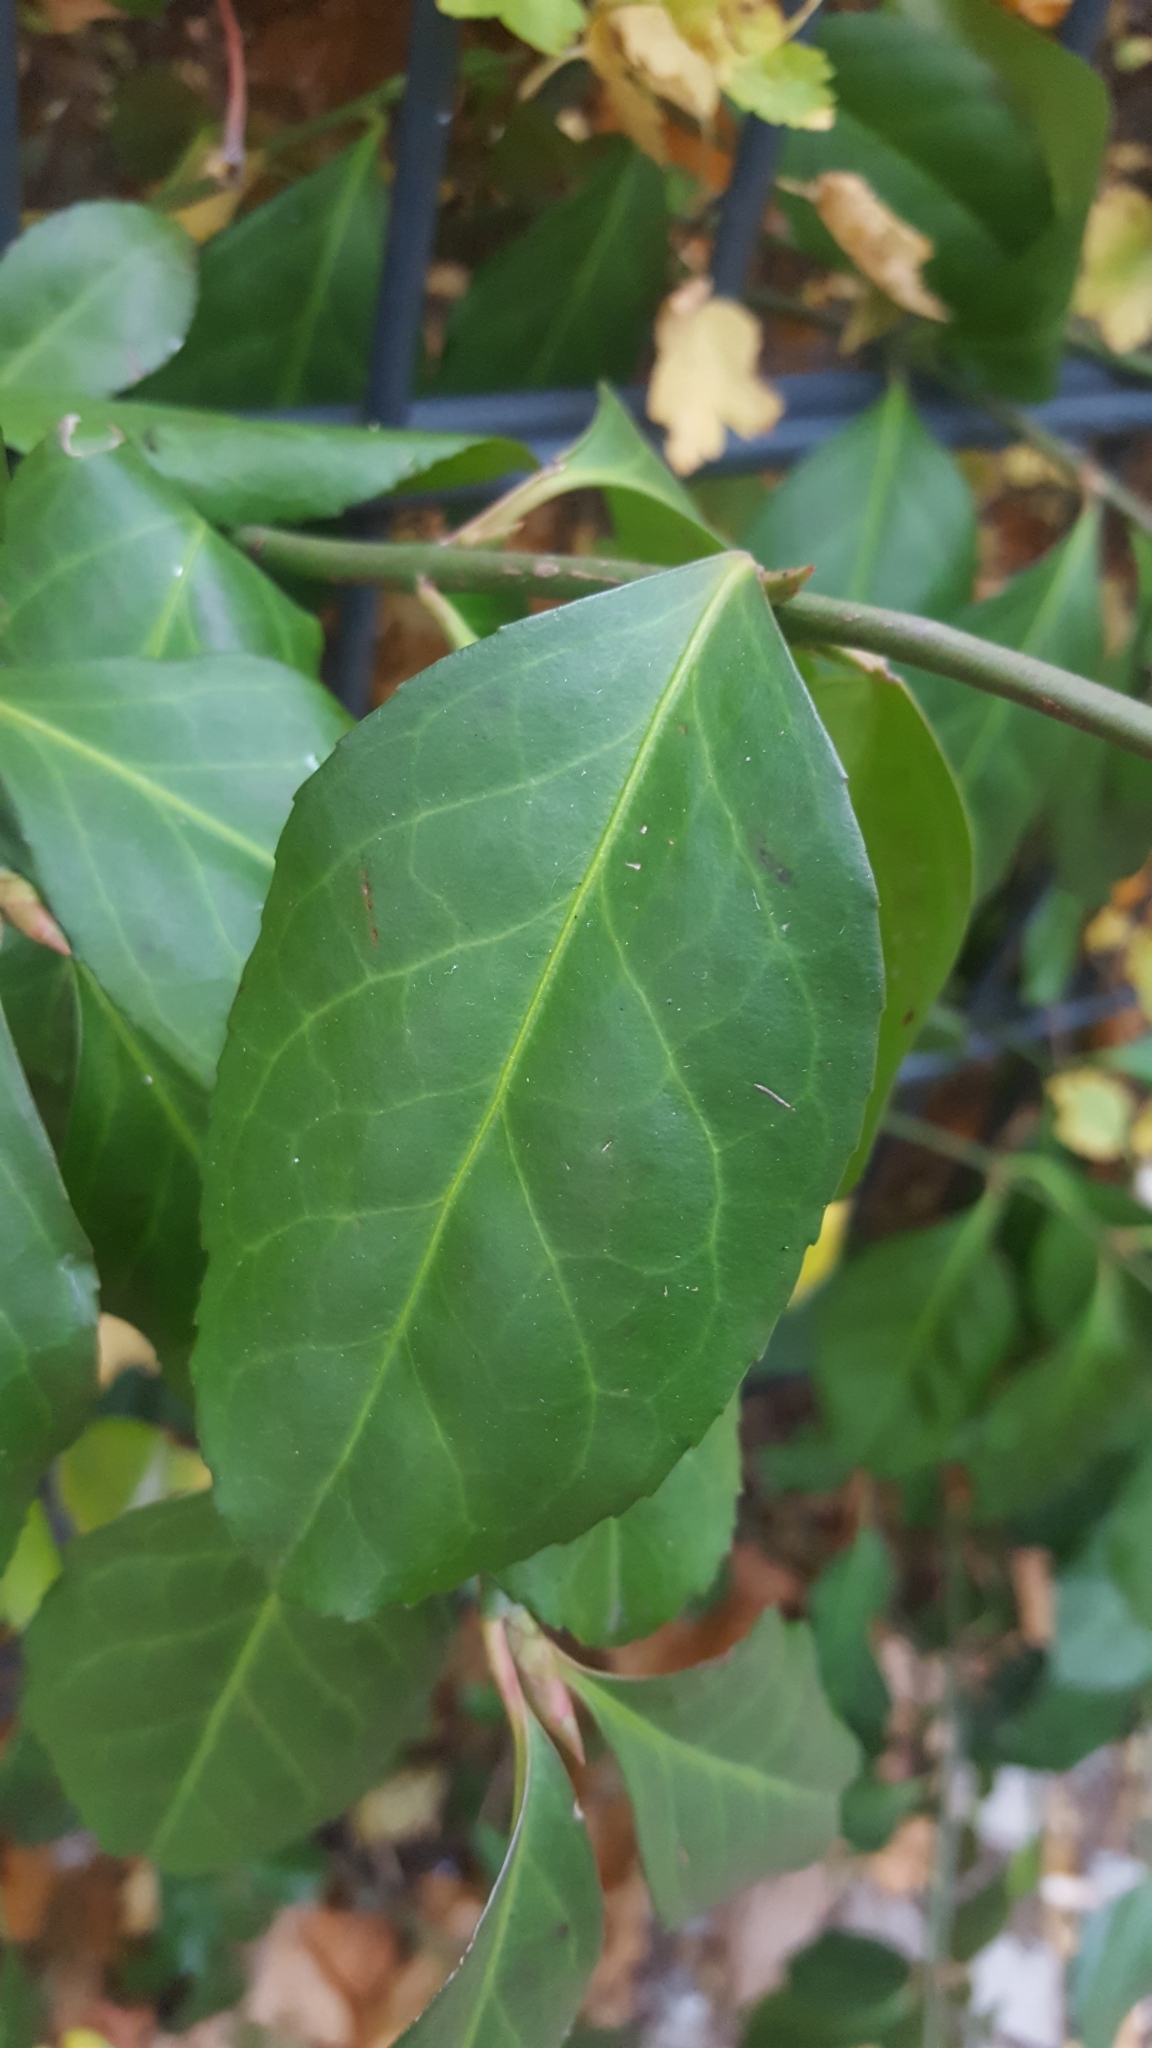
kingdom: Plantae
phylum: Tracheophyta
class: Magnoliopsida
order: Celastrales
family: Celastraceae
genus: Euonymus
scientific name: Euonymus fortunei
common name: Climbing euonymus
